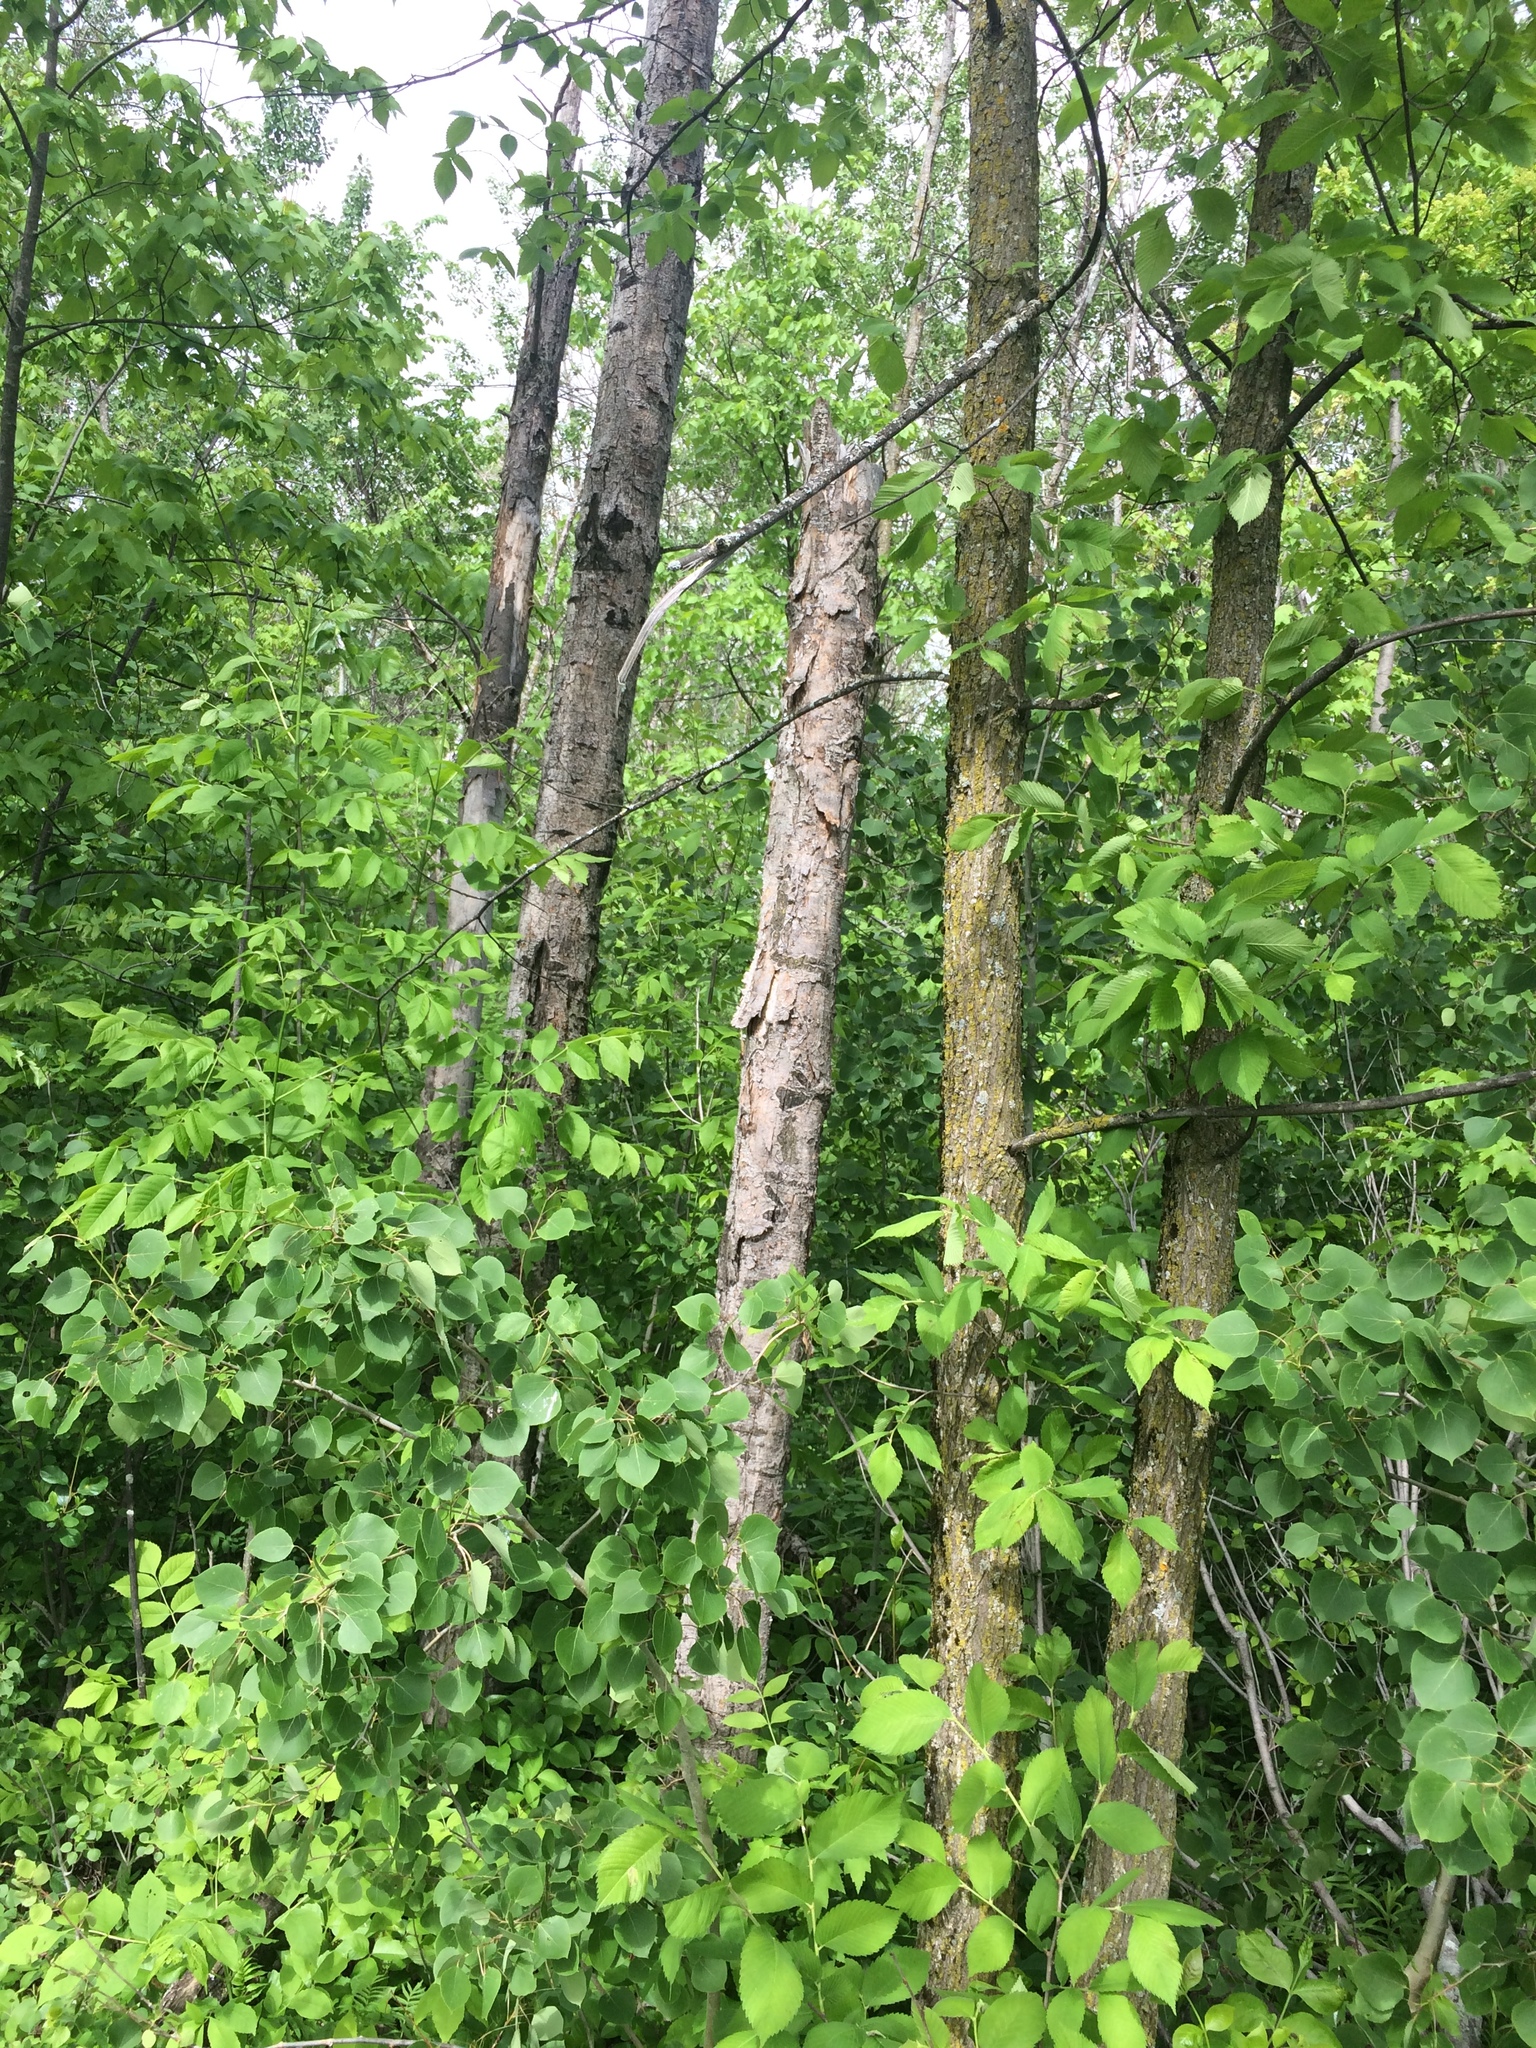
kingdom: Plantae
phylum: Tracheophyta
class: Magnoliopsida
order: Malpighiales
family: Salicaceae
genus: Populus
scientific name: Populus tremuloides
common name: Quaking aspen
